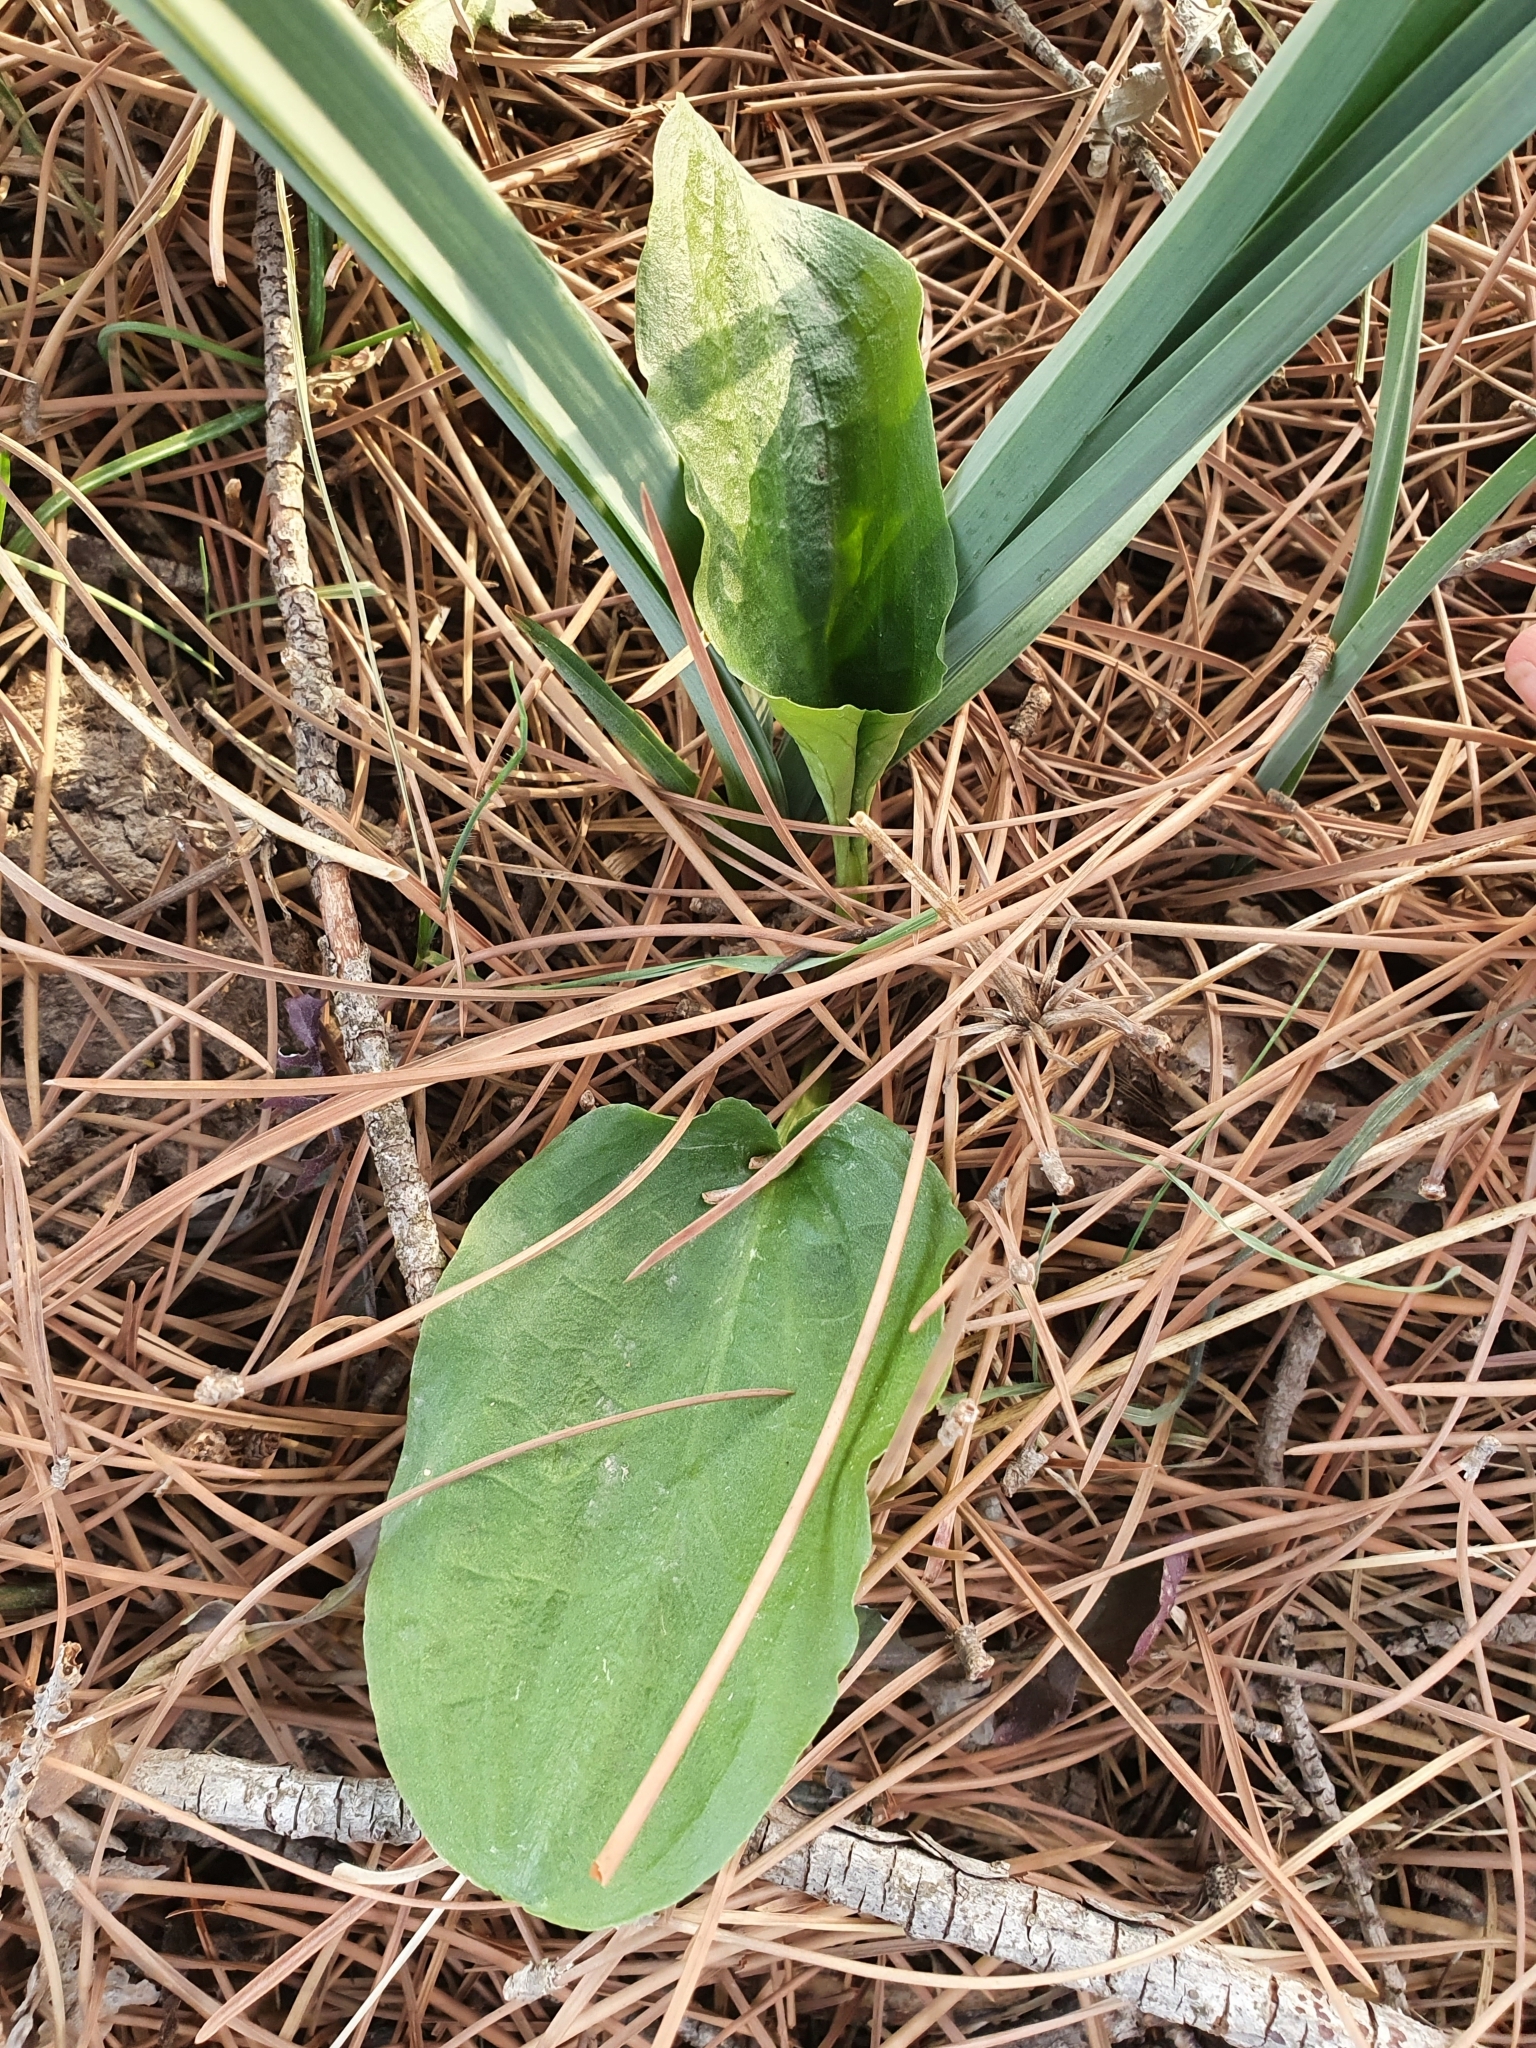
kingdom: Plantae
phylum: Tracheophyta
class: Liliopsida
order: Alismatales
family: Araceae
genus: Ambrosina
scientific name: Ambrosina bassii
